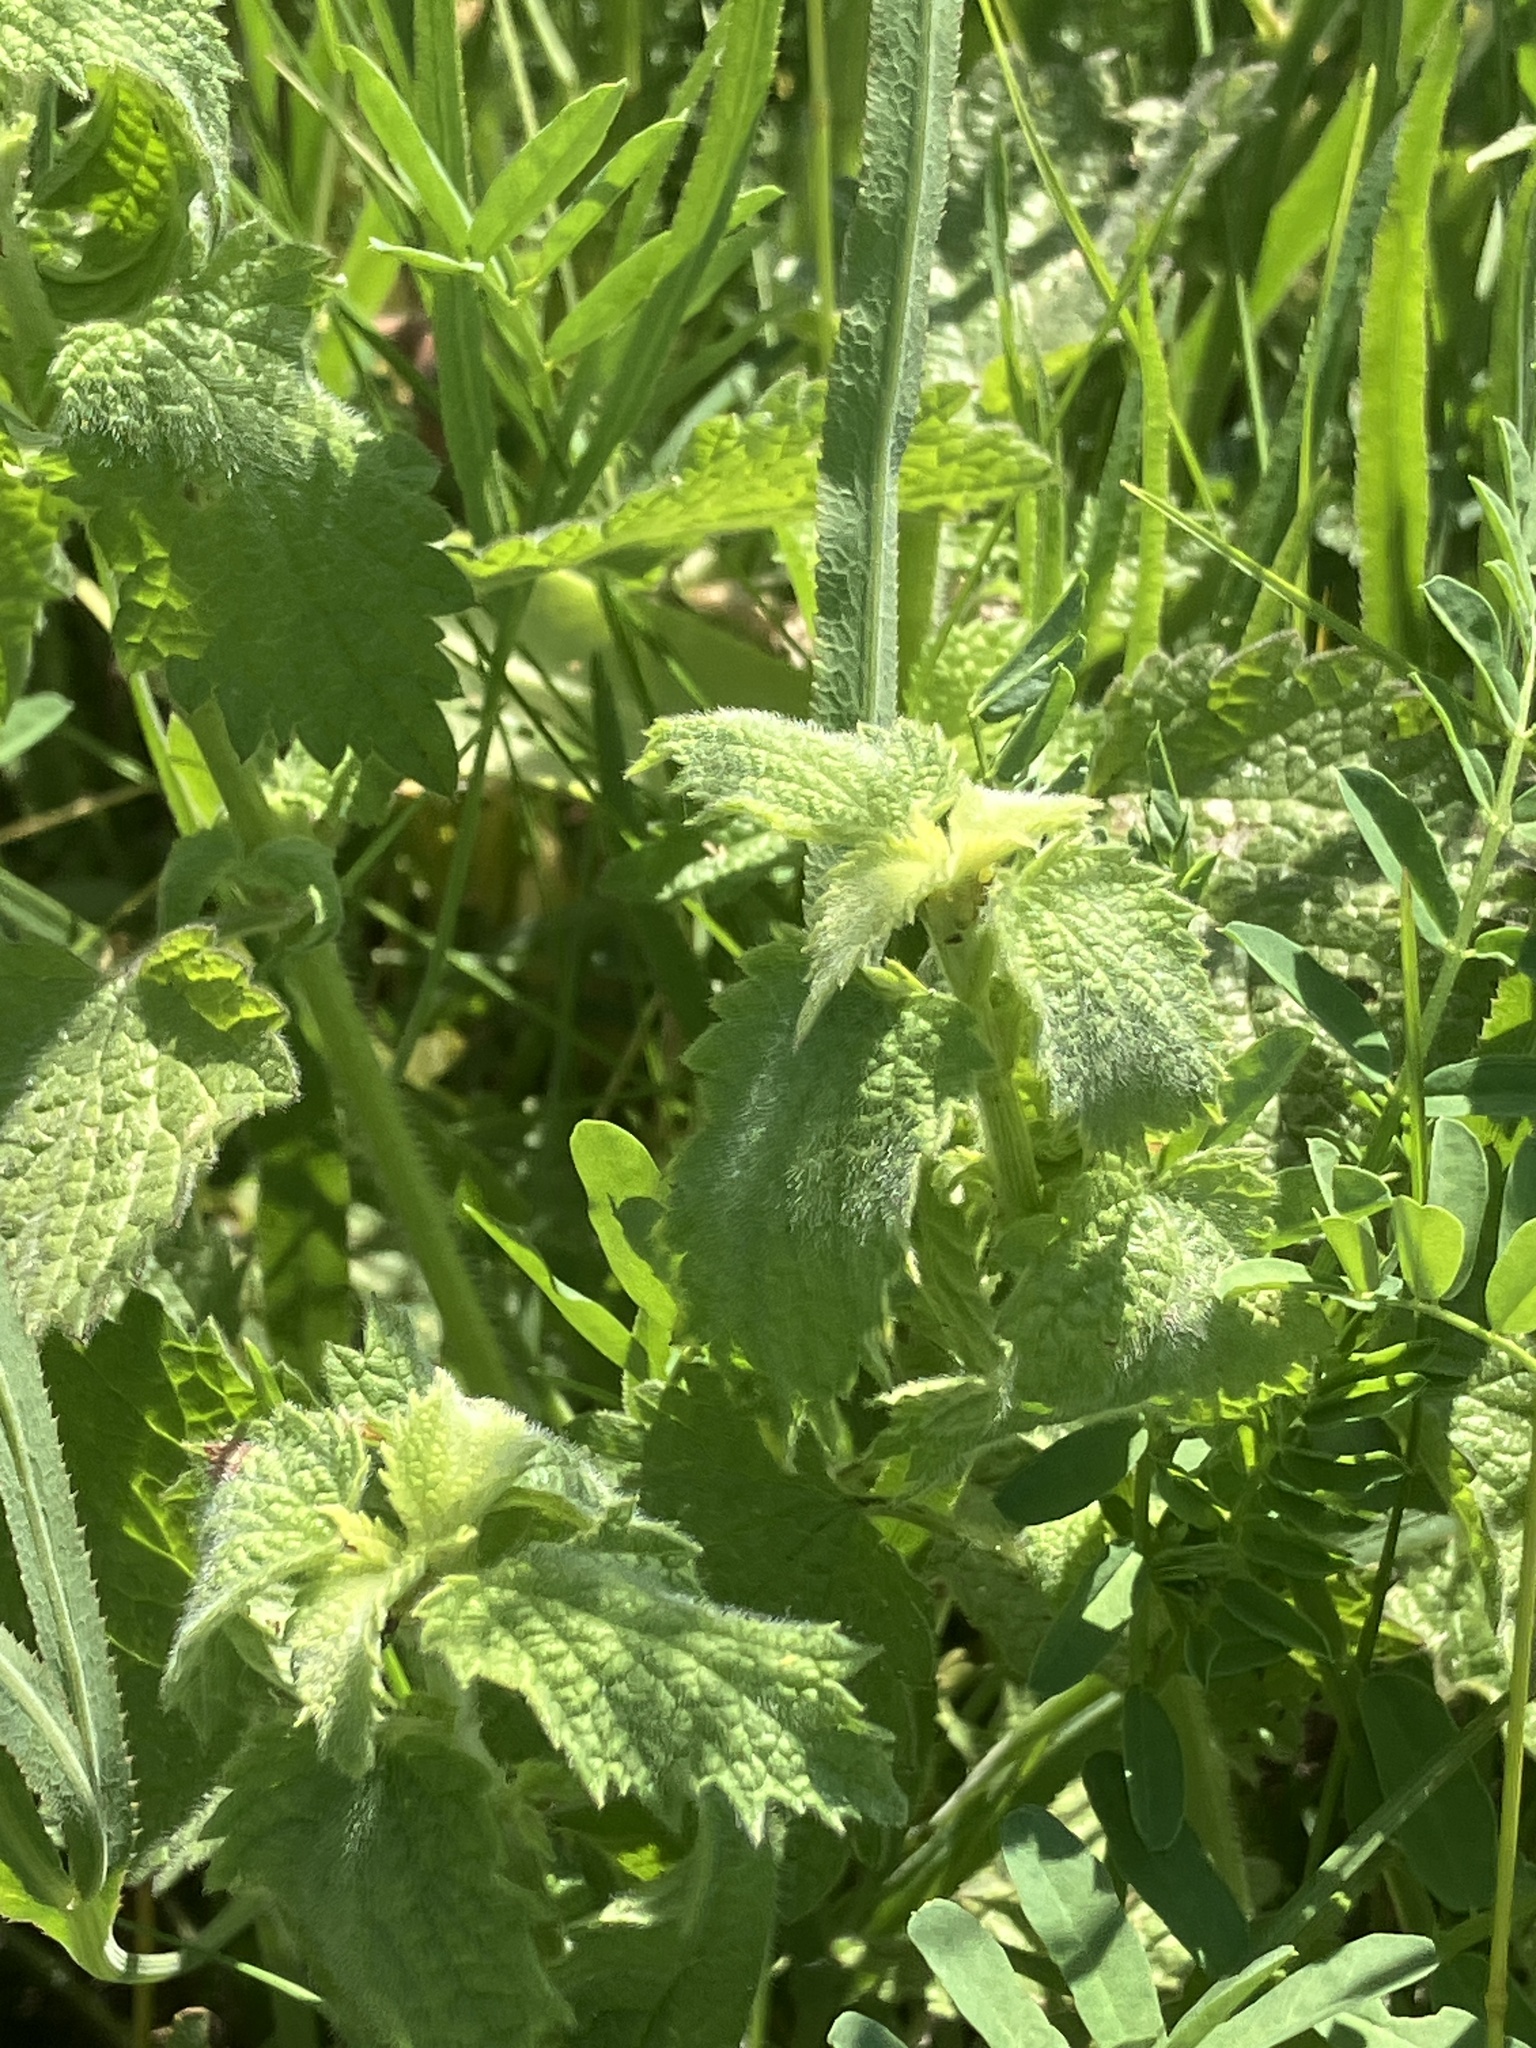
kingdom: Plantae
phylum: Tracheophyta
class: Magnoliopsida
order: Lamiales
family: Lamiaceae
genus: Ballota
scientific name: Ballota nigra
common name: Black horehound
